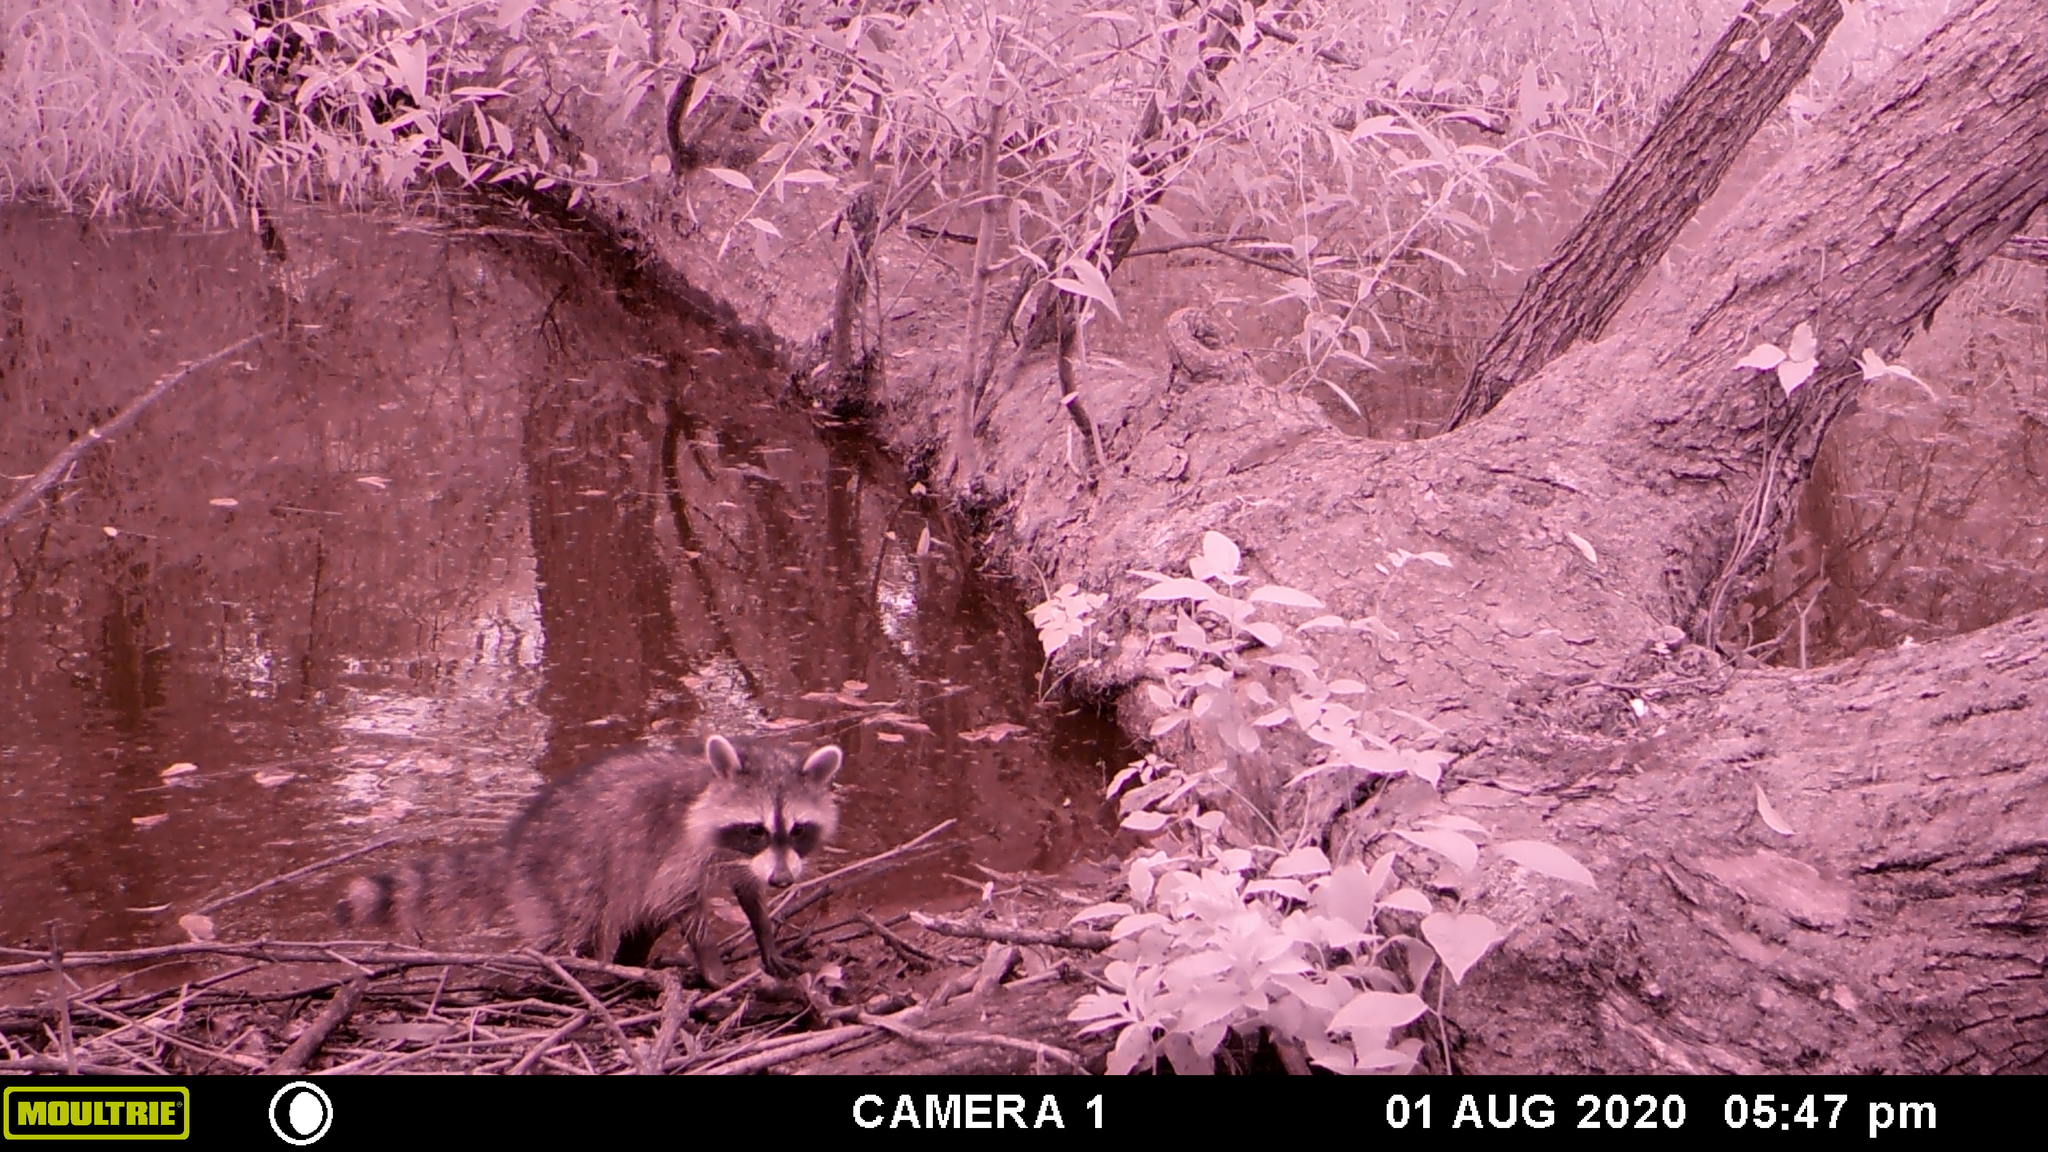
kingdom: Animalia
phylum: Chordata
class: Mammalia
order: Carnivora
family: Procyonidae
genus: Procyon
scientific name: Procyon lotor
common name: Raccoon
